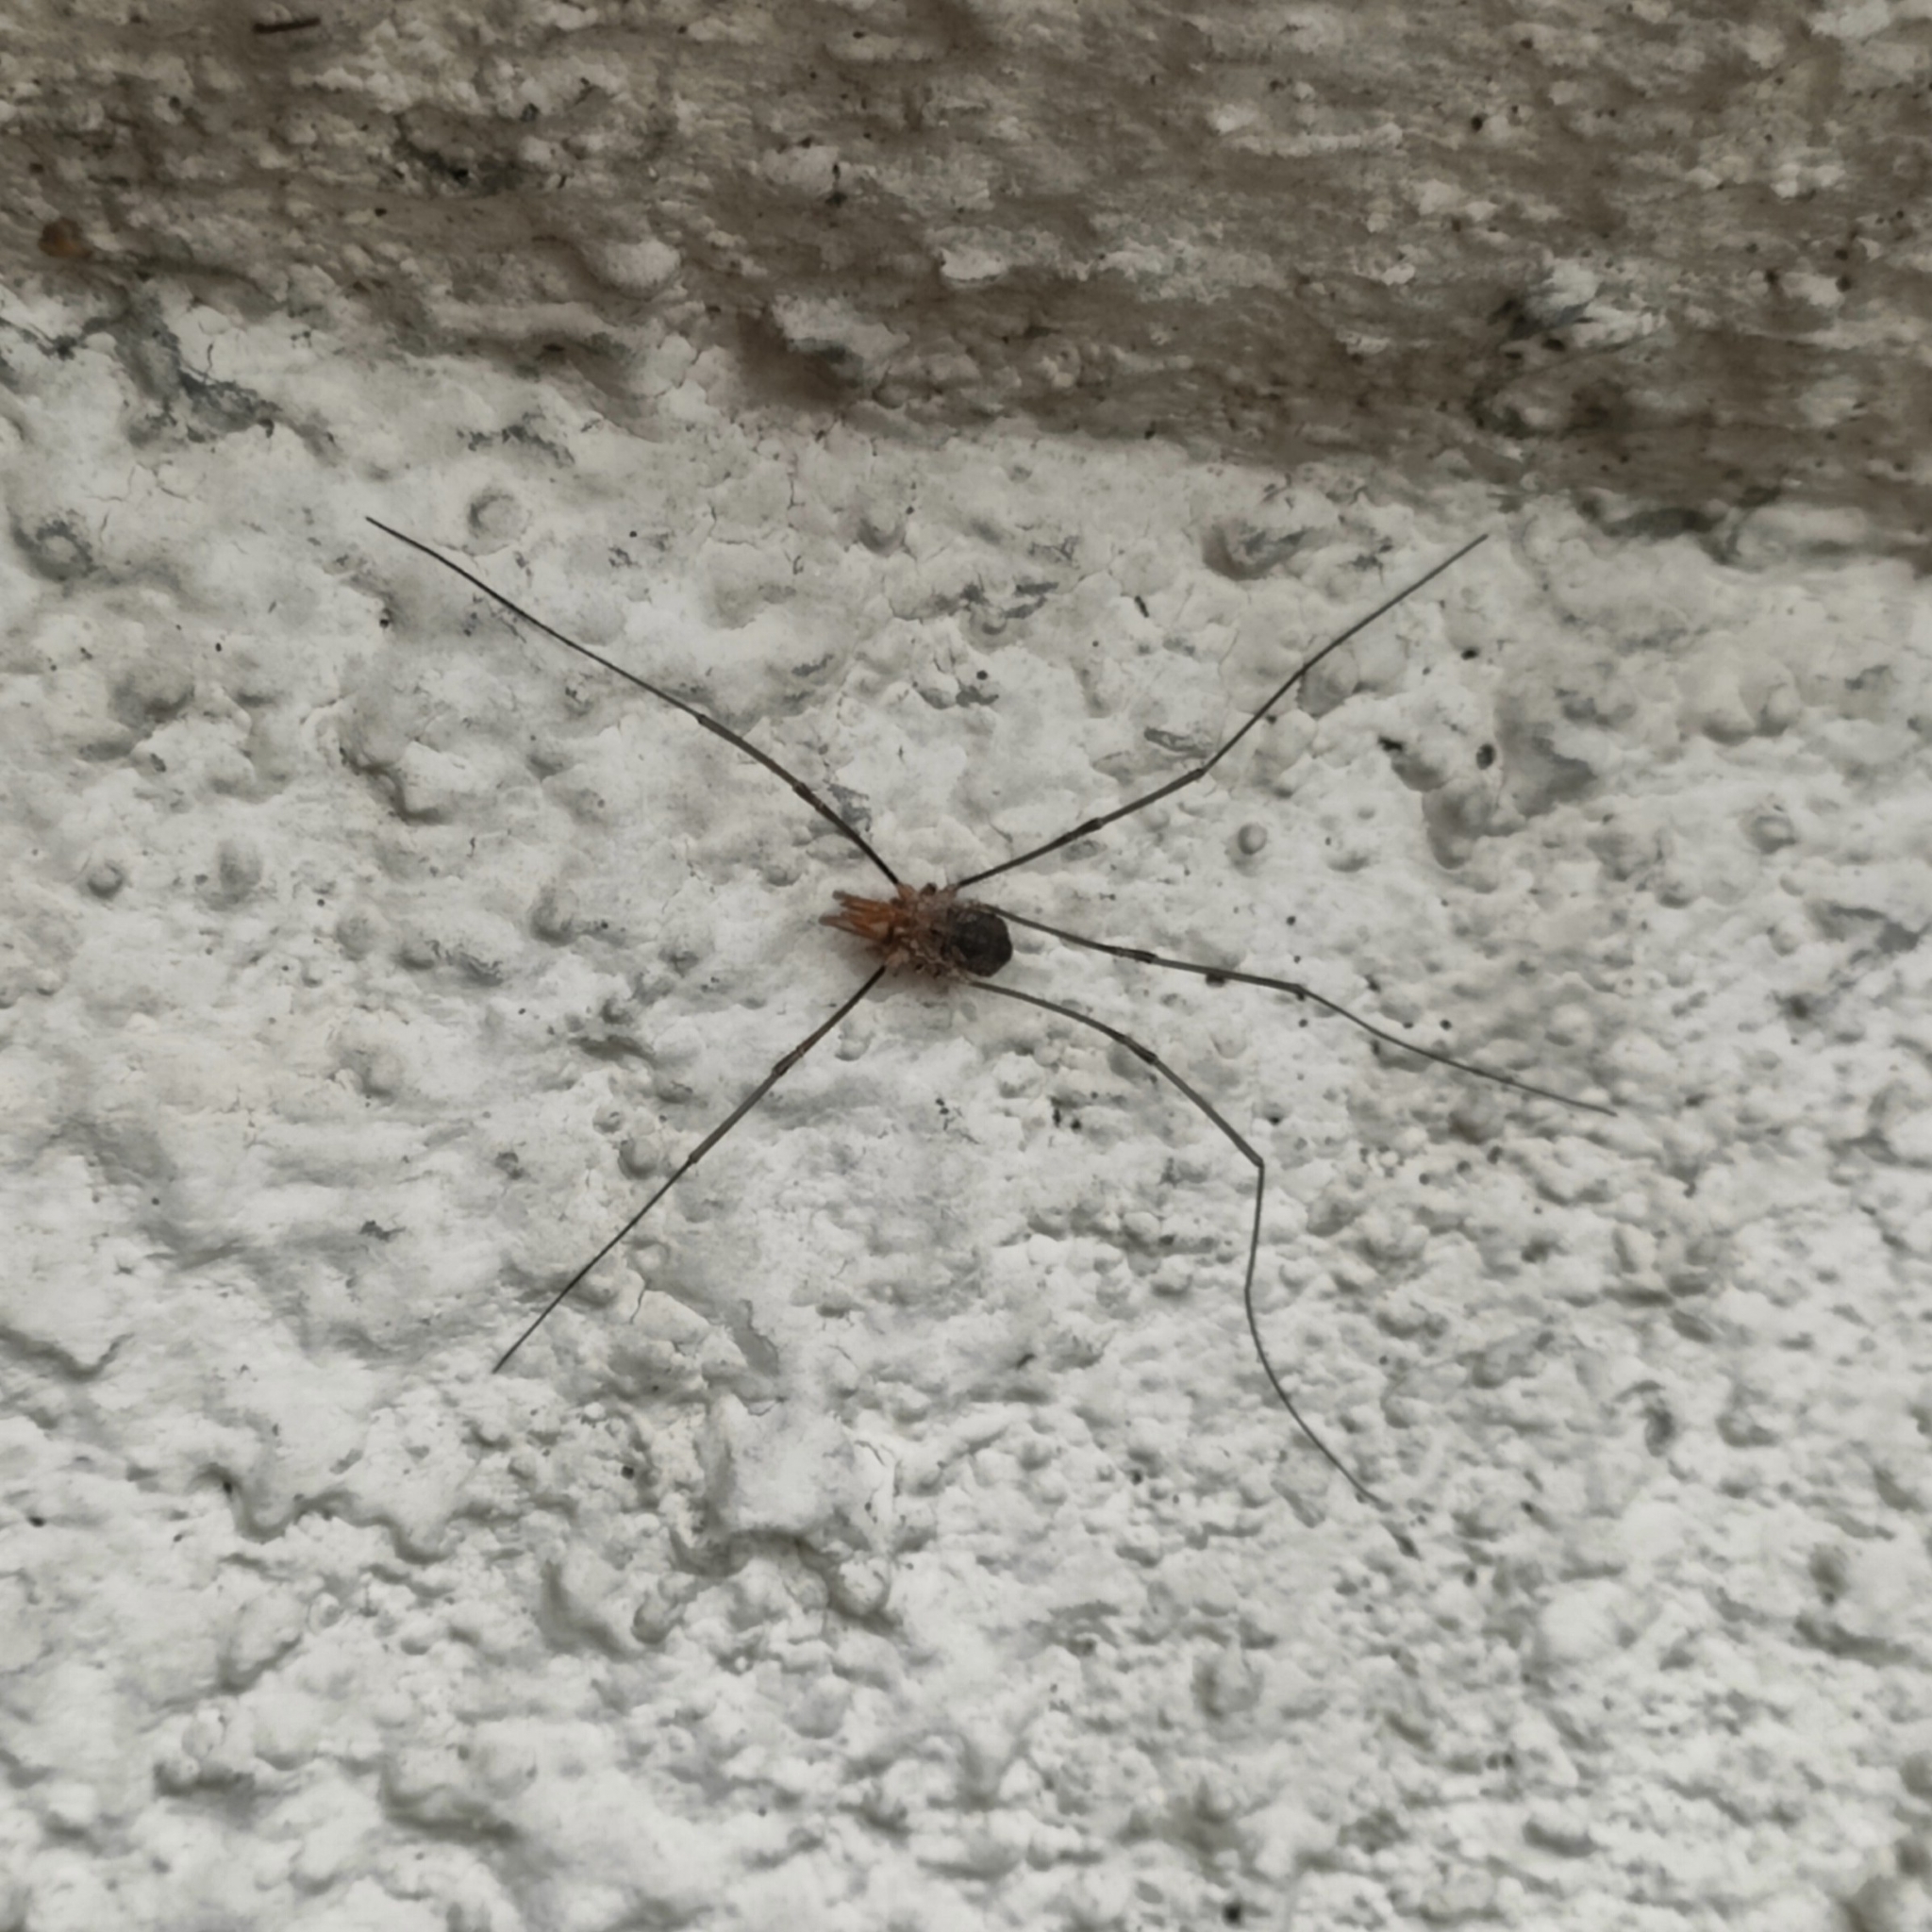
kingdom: Animalia
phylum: Arthropoda
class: Arachnida
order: Opiliones
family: Phalangiidae
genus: Phalangium
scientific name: Phalangium opilio
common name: Daddy longleg
